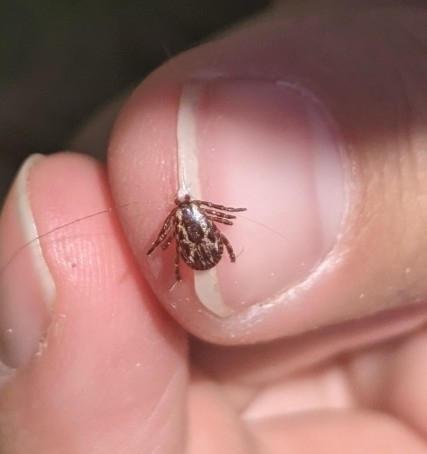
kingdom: Animalia
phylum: Arthropoda
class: Arachnida
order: Ixodida
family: Ixodidae
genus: Dermacentor
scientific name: Dermacentor variabilis
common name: American dog tick
